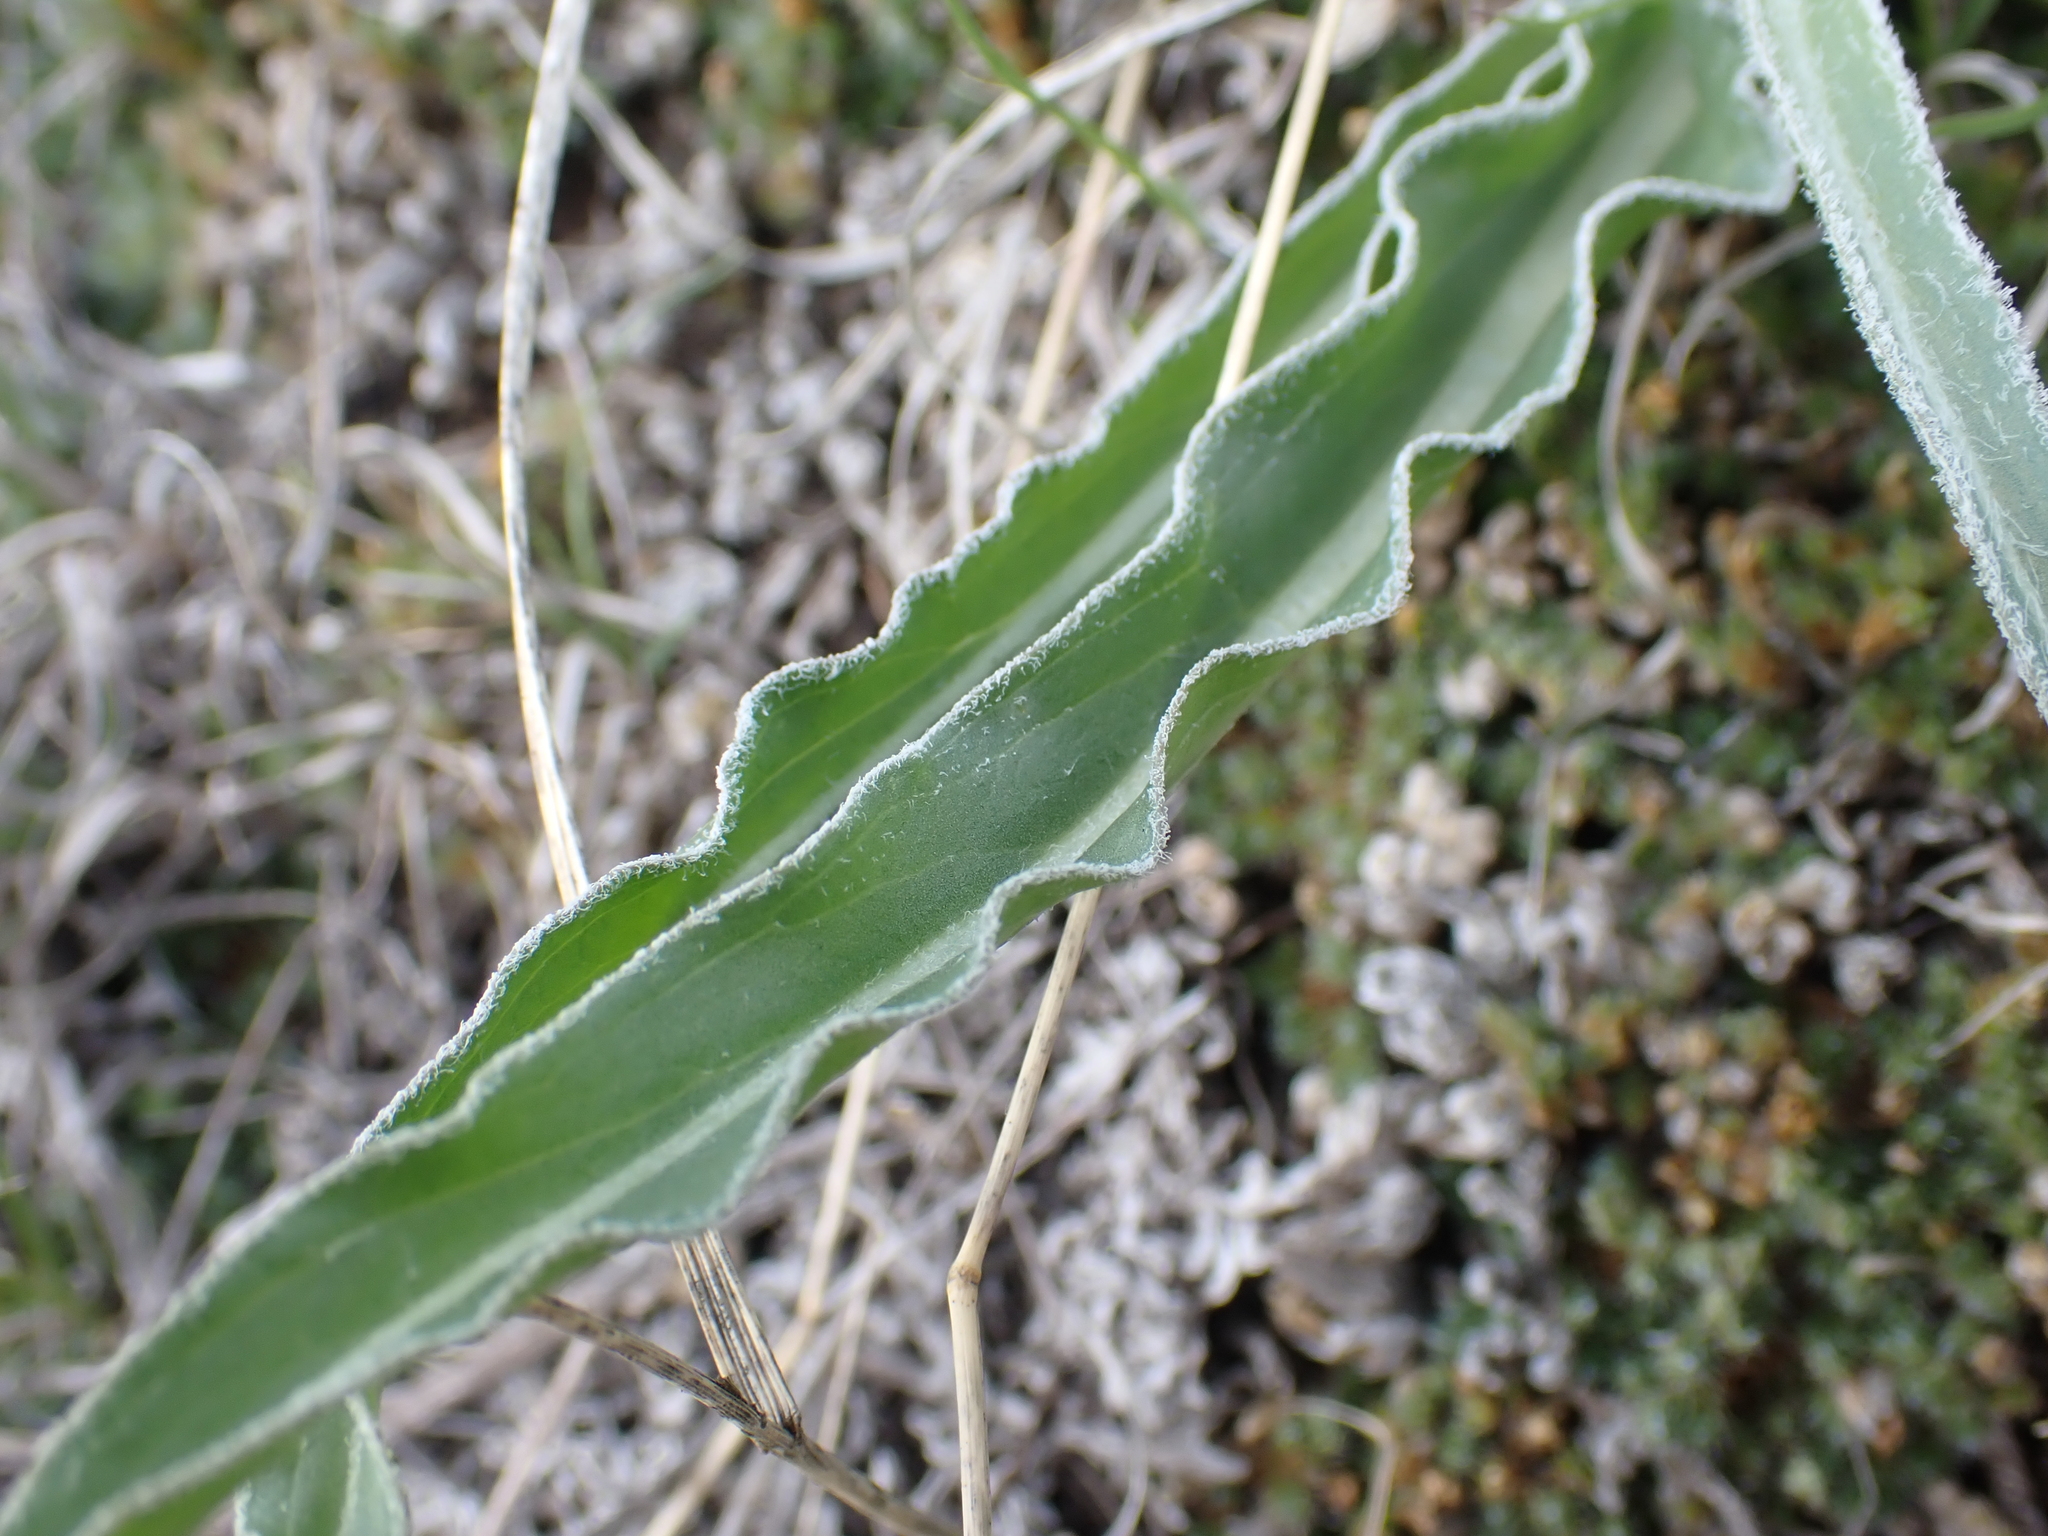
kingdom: Plantae
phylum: Tracheophyta
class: Magnoliopsida
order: Asterales
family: Asteraceae
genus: Microseris
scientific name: Microseris cuspidata
